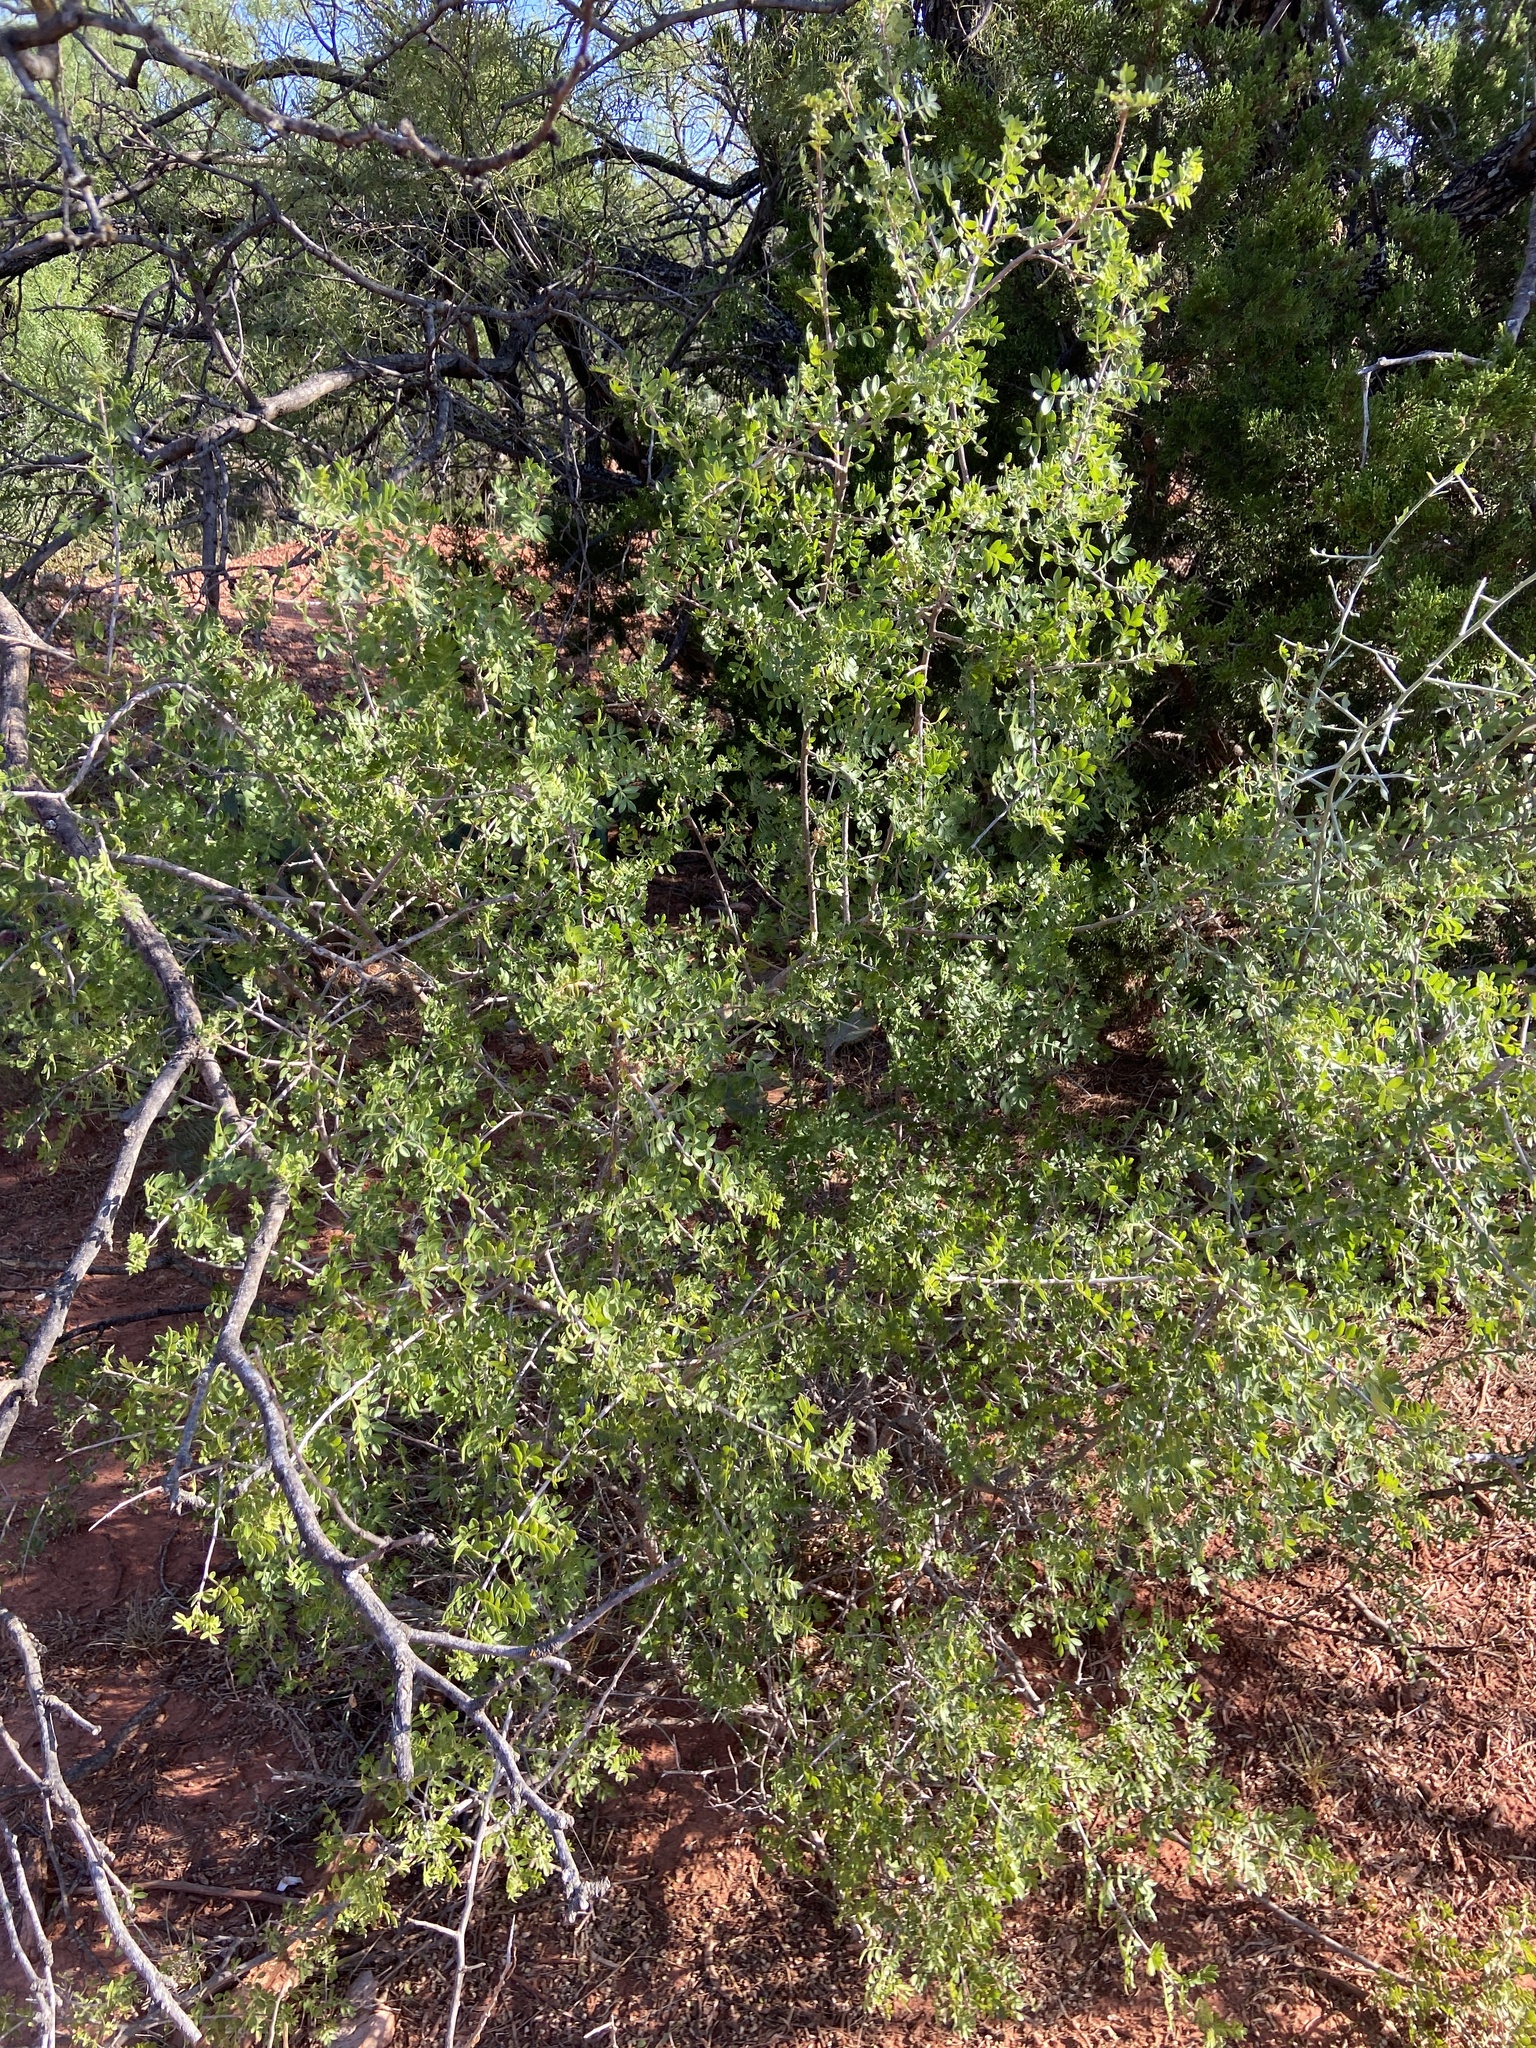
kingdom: Plantae
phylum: Tracheophyta
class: Magnoliopsida
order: Sapindales
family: Anacardiaceae
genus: Rhus
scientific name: Rhus microphylla
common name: Desert sumac
